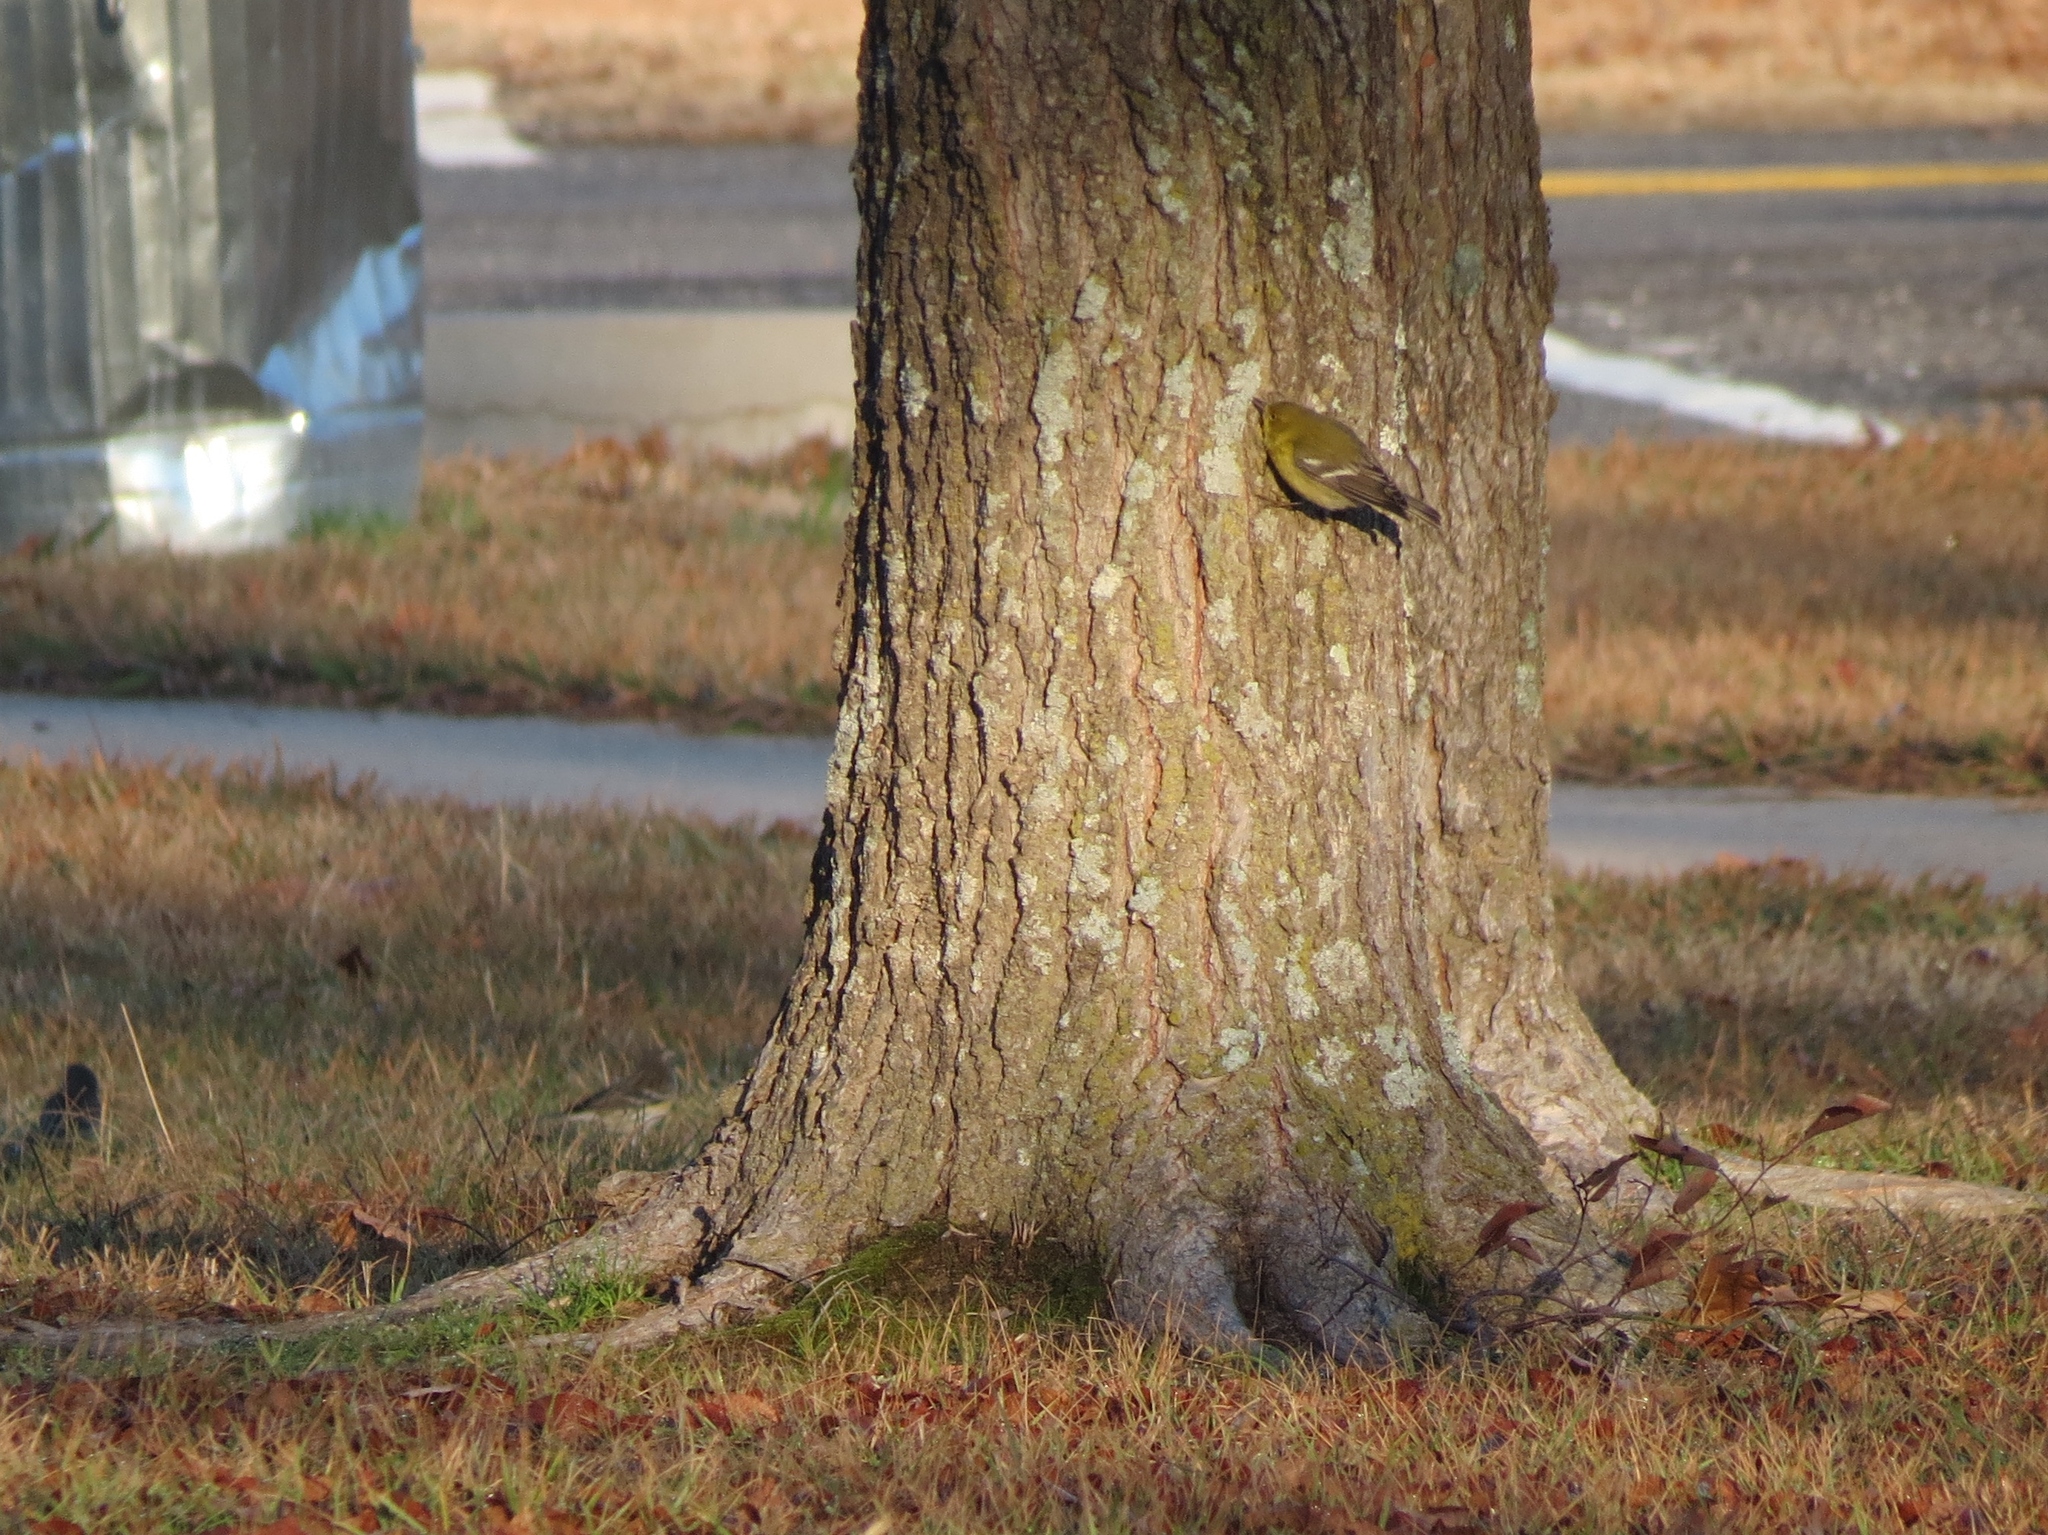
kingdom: Animalia
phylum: Chordata
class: Aves
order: Passeriformes
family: Parulidae
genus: Setophaga
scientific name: Setophaga pinus
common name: Pine warbler
